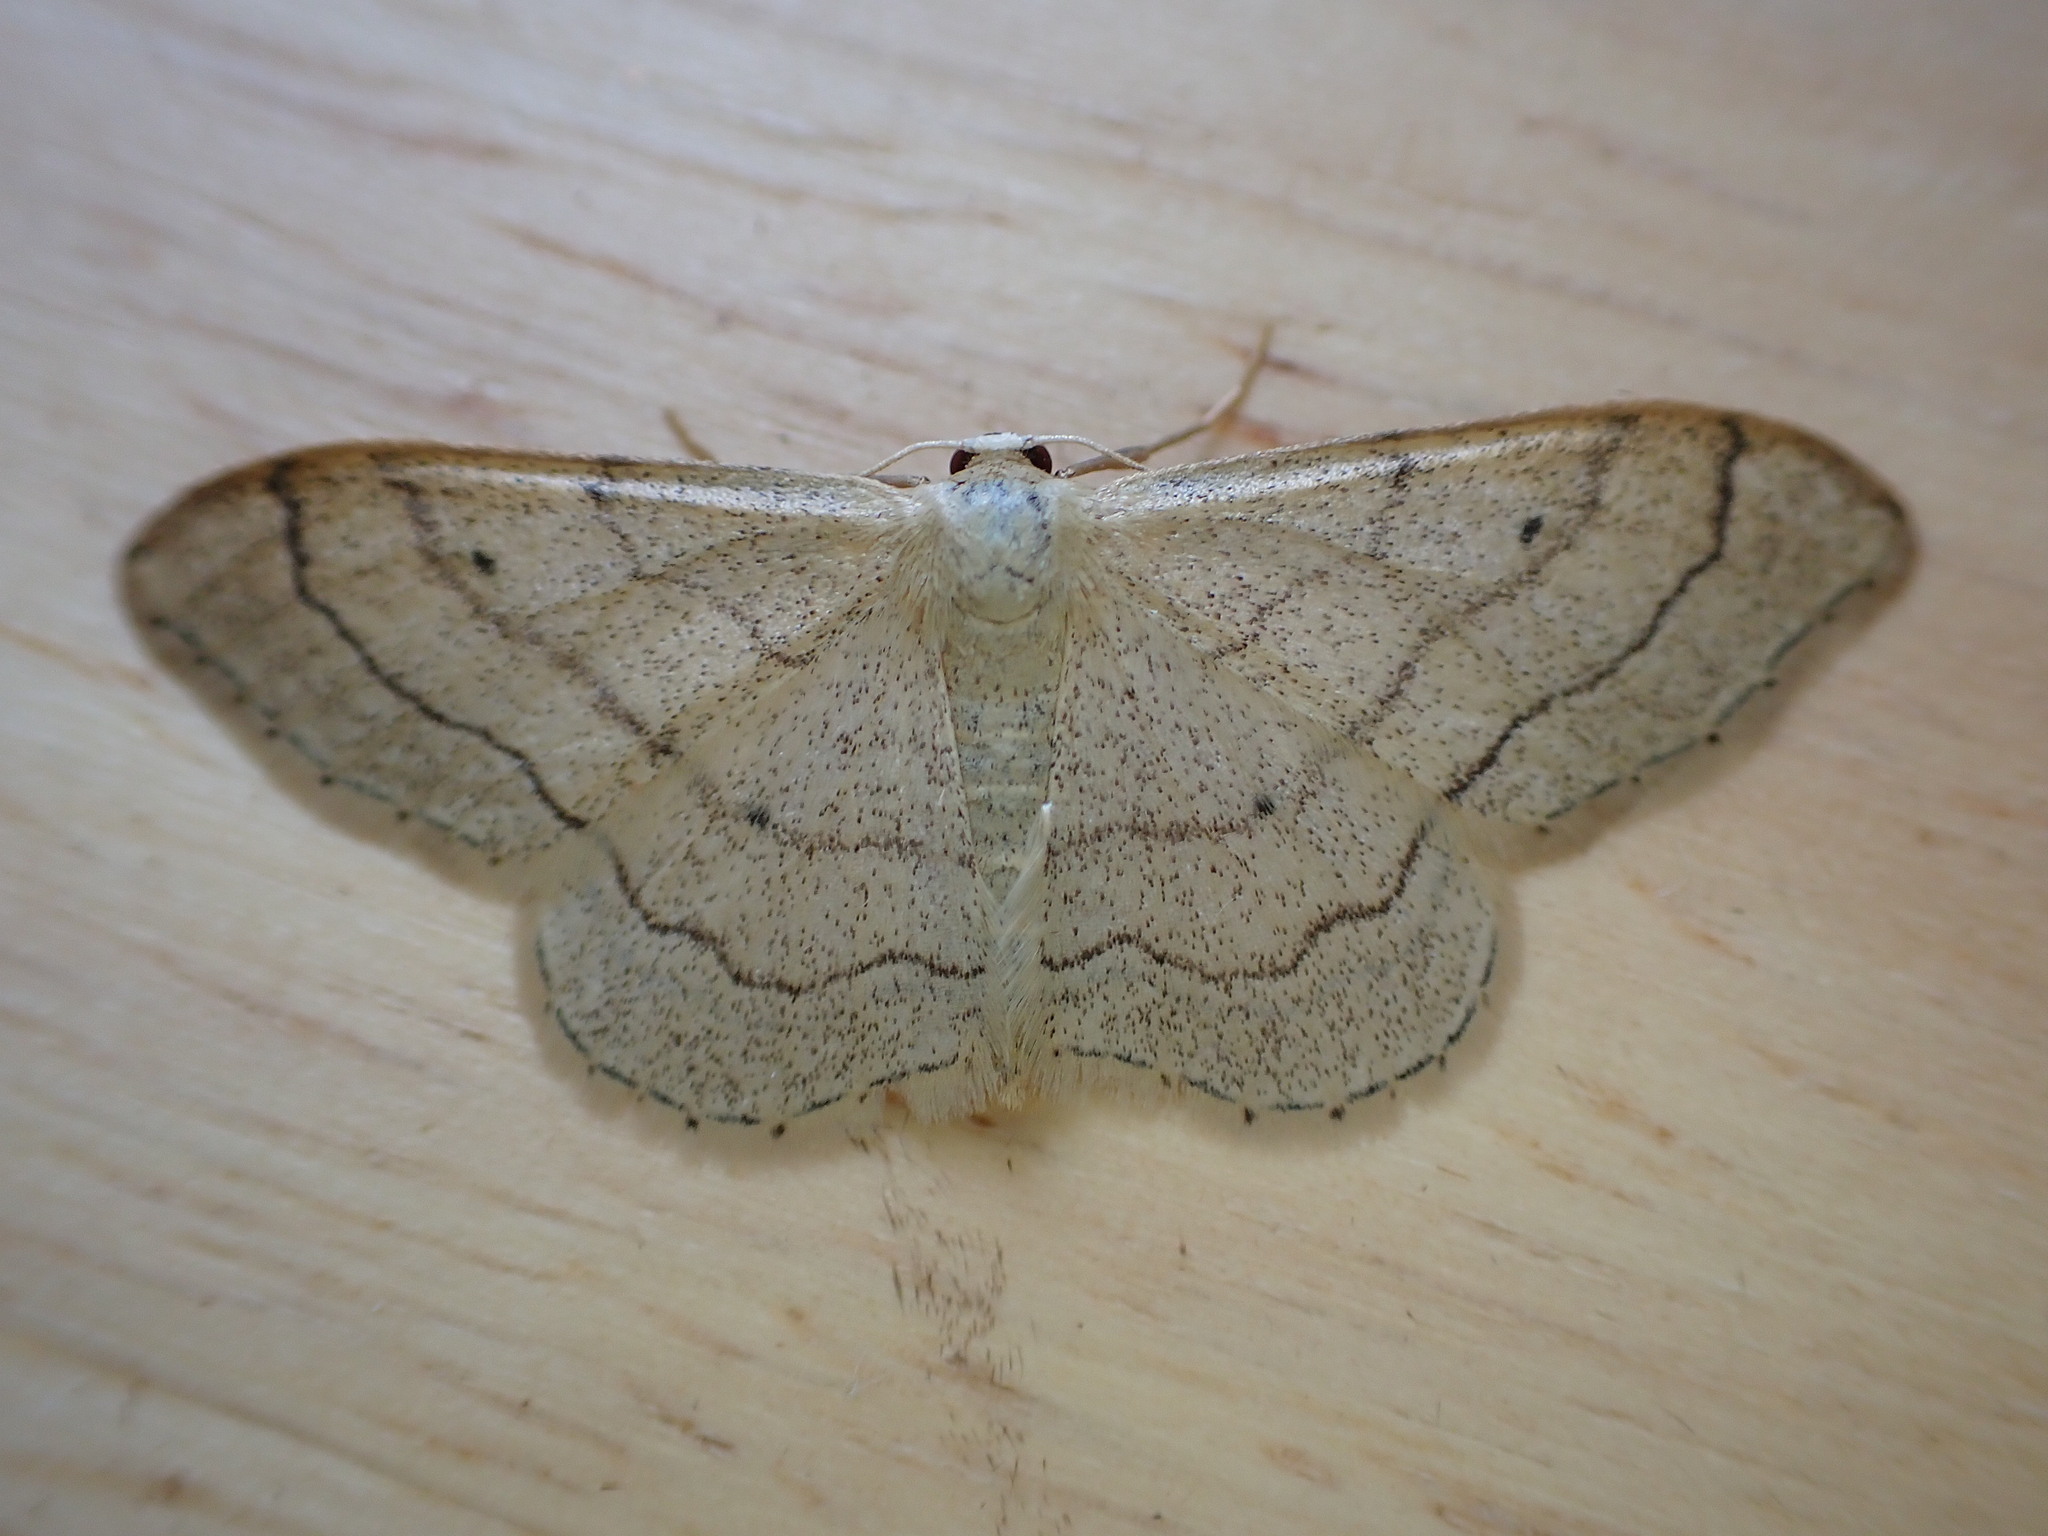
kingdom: Animalia
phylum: Arthropoda
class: Insecta
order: Lepidoptera
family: Geometridae
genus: Idaea
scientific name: Idaea aversata
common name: Riband wave
